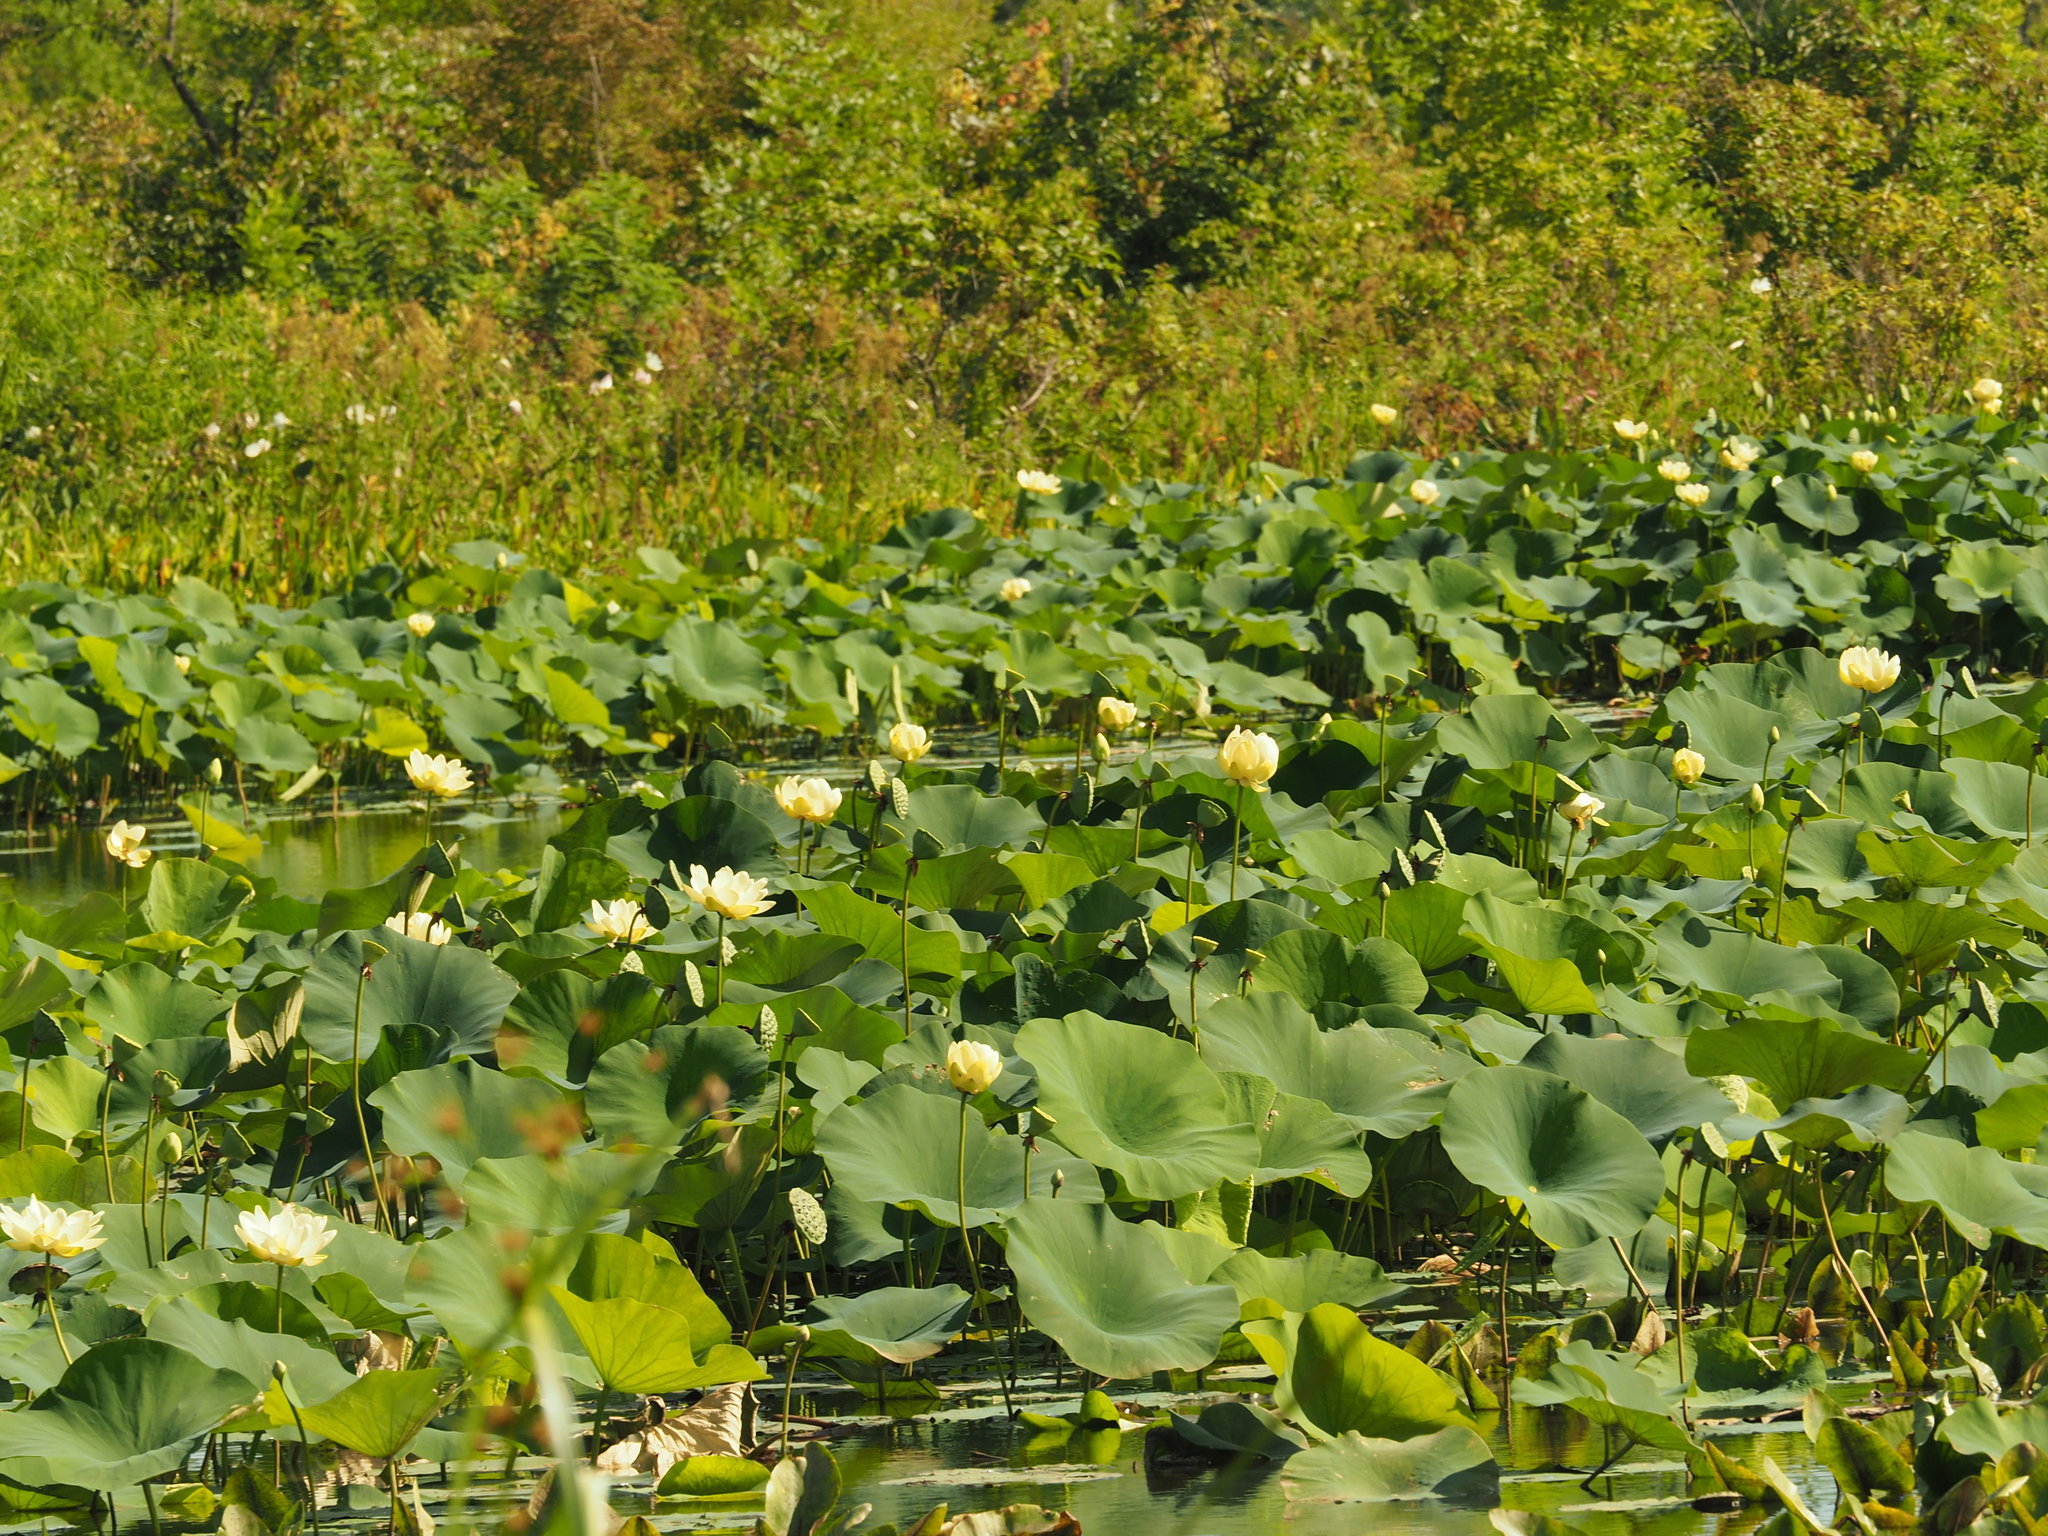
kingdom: Plantae
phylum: Tracheophyta
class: Magnoliopsida
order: Proteales
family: Nelumbonaceae
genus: Nelumbo
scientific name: Nelumbo lutea
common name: American lotus
